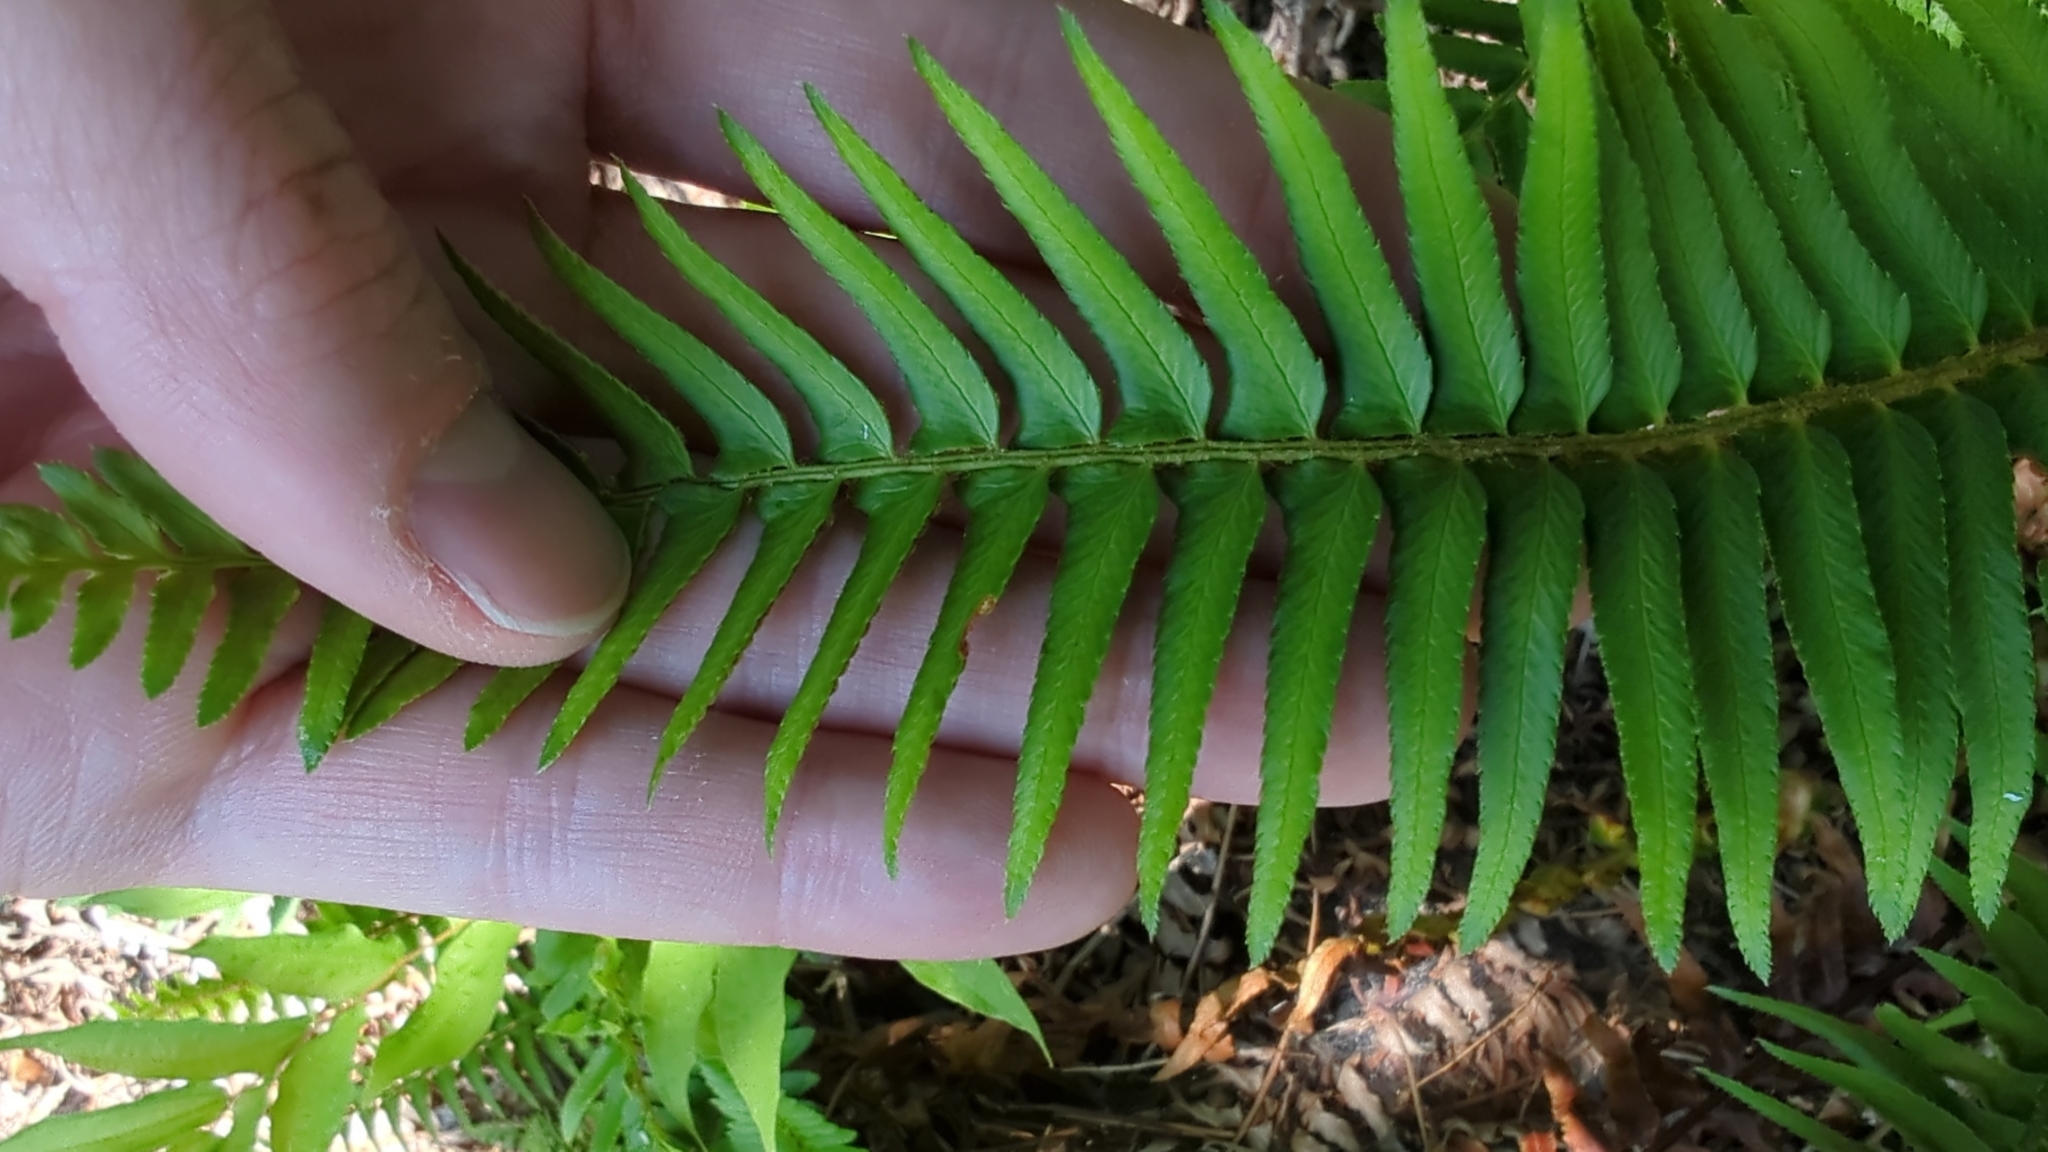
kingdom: Plantae
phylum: Tracheophyta
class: Polypodiopsida
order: Polypodiales
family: Dryopteridaceae
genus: Polystichum
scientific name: Polystichum munitum
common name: Western sword-fern
